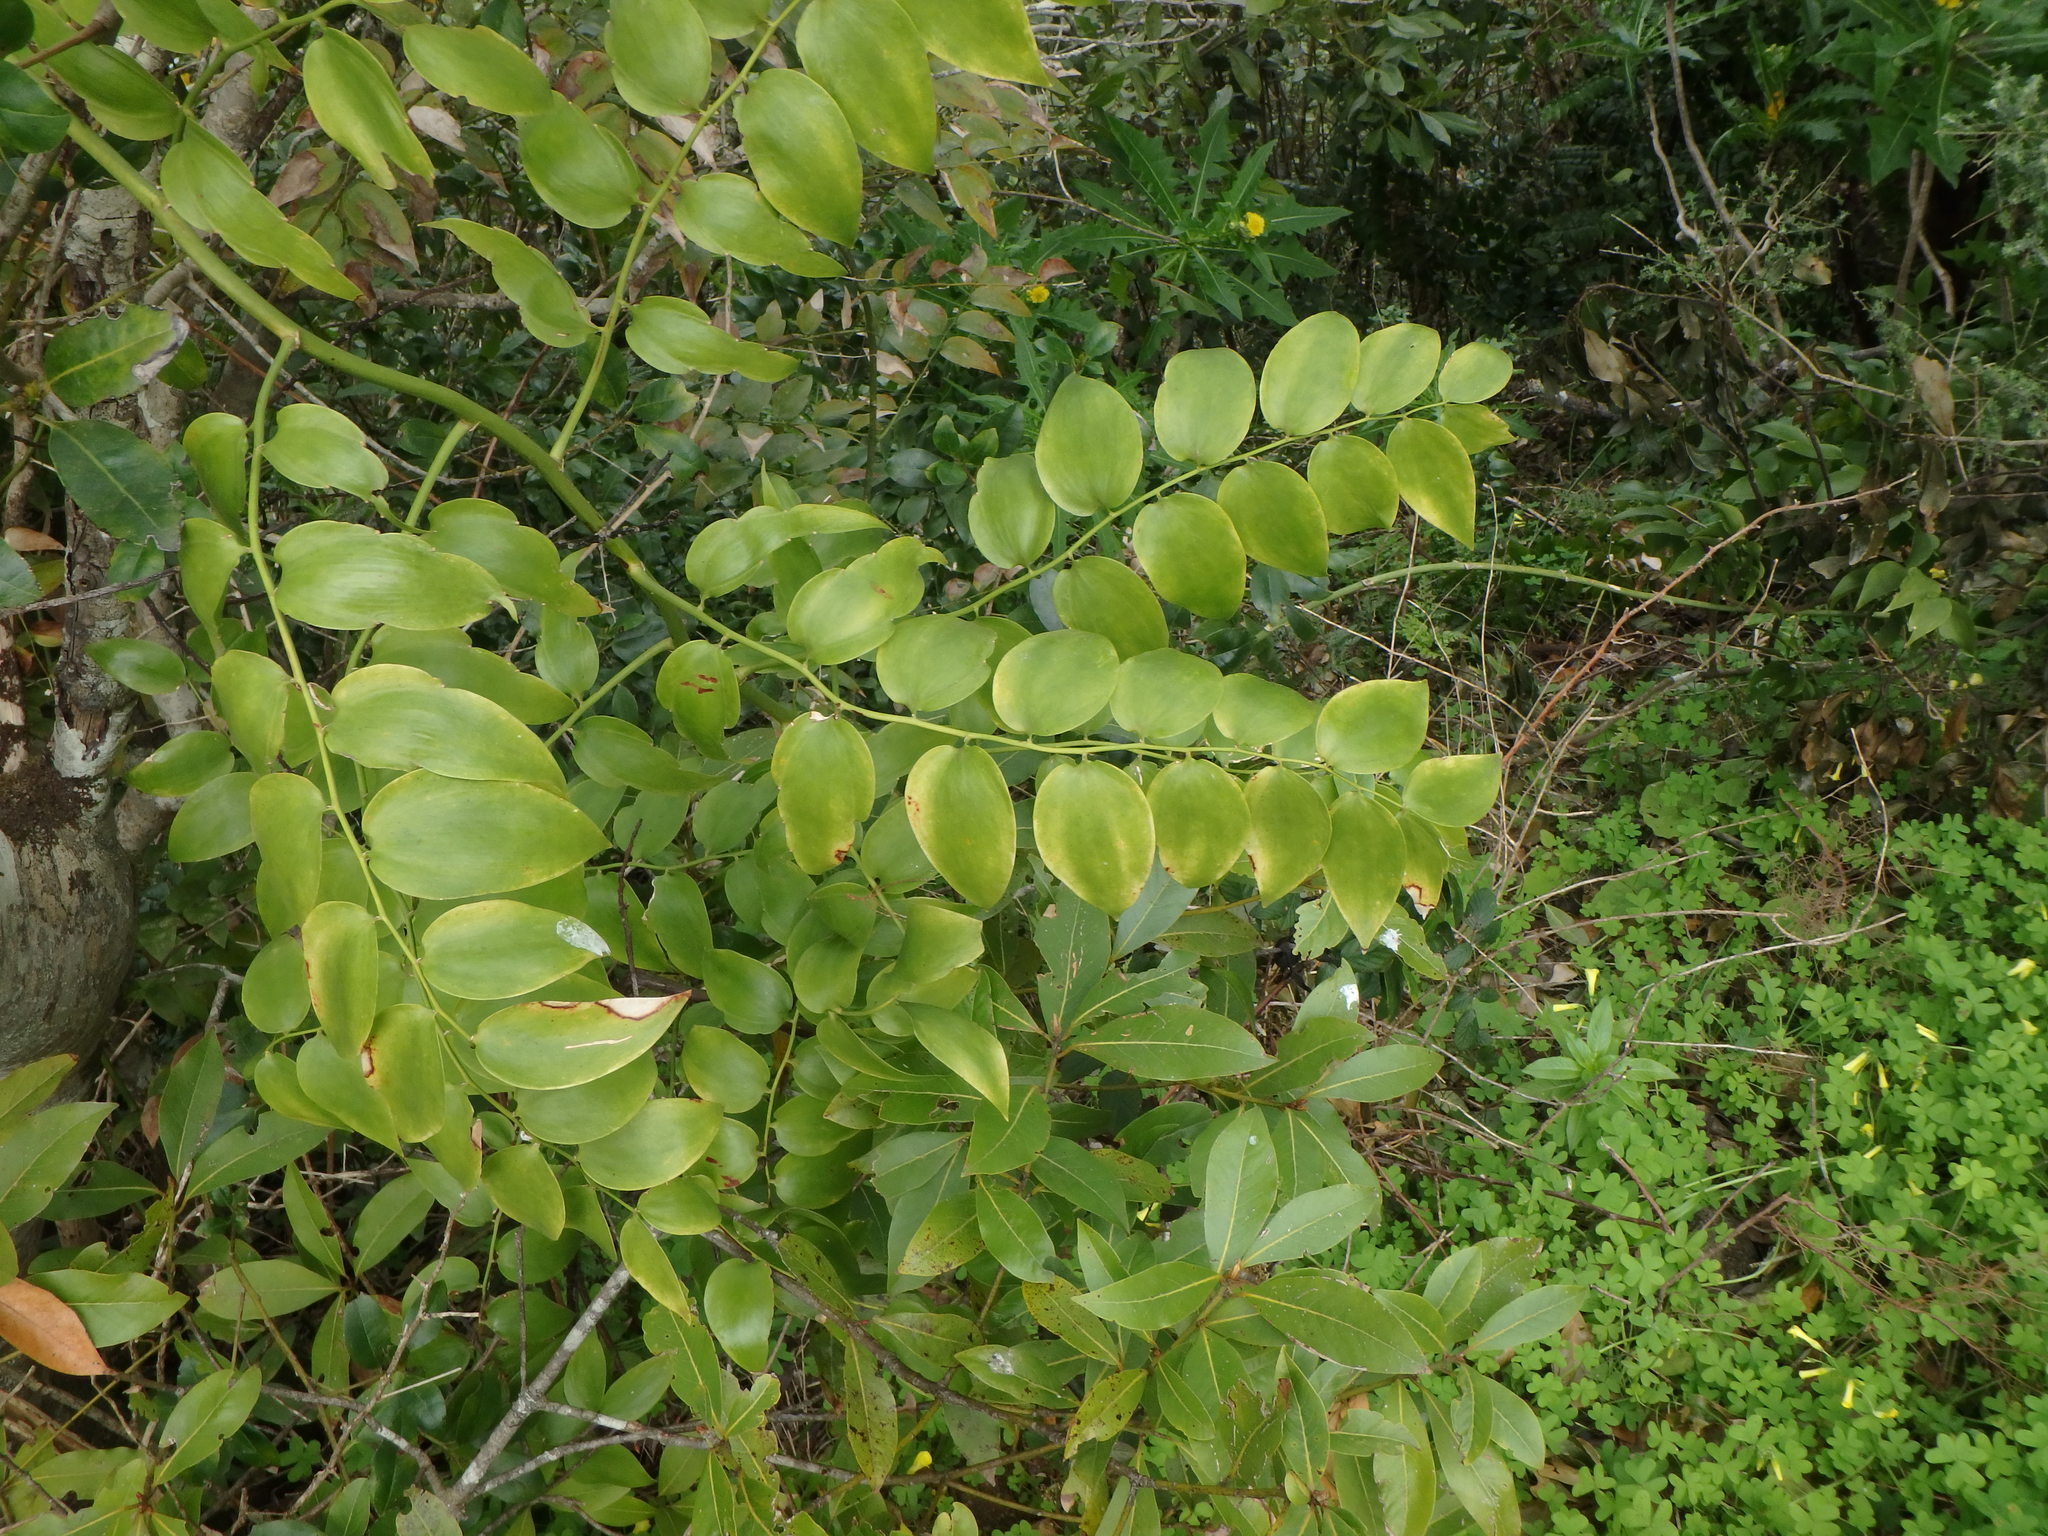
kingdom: Plantae
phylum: Tracheophyta
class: Liliopsida
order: Asparagales
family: Asparagaceae
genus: Semele
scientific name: Semele androgyna
